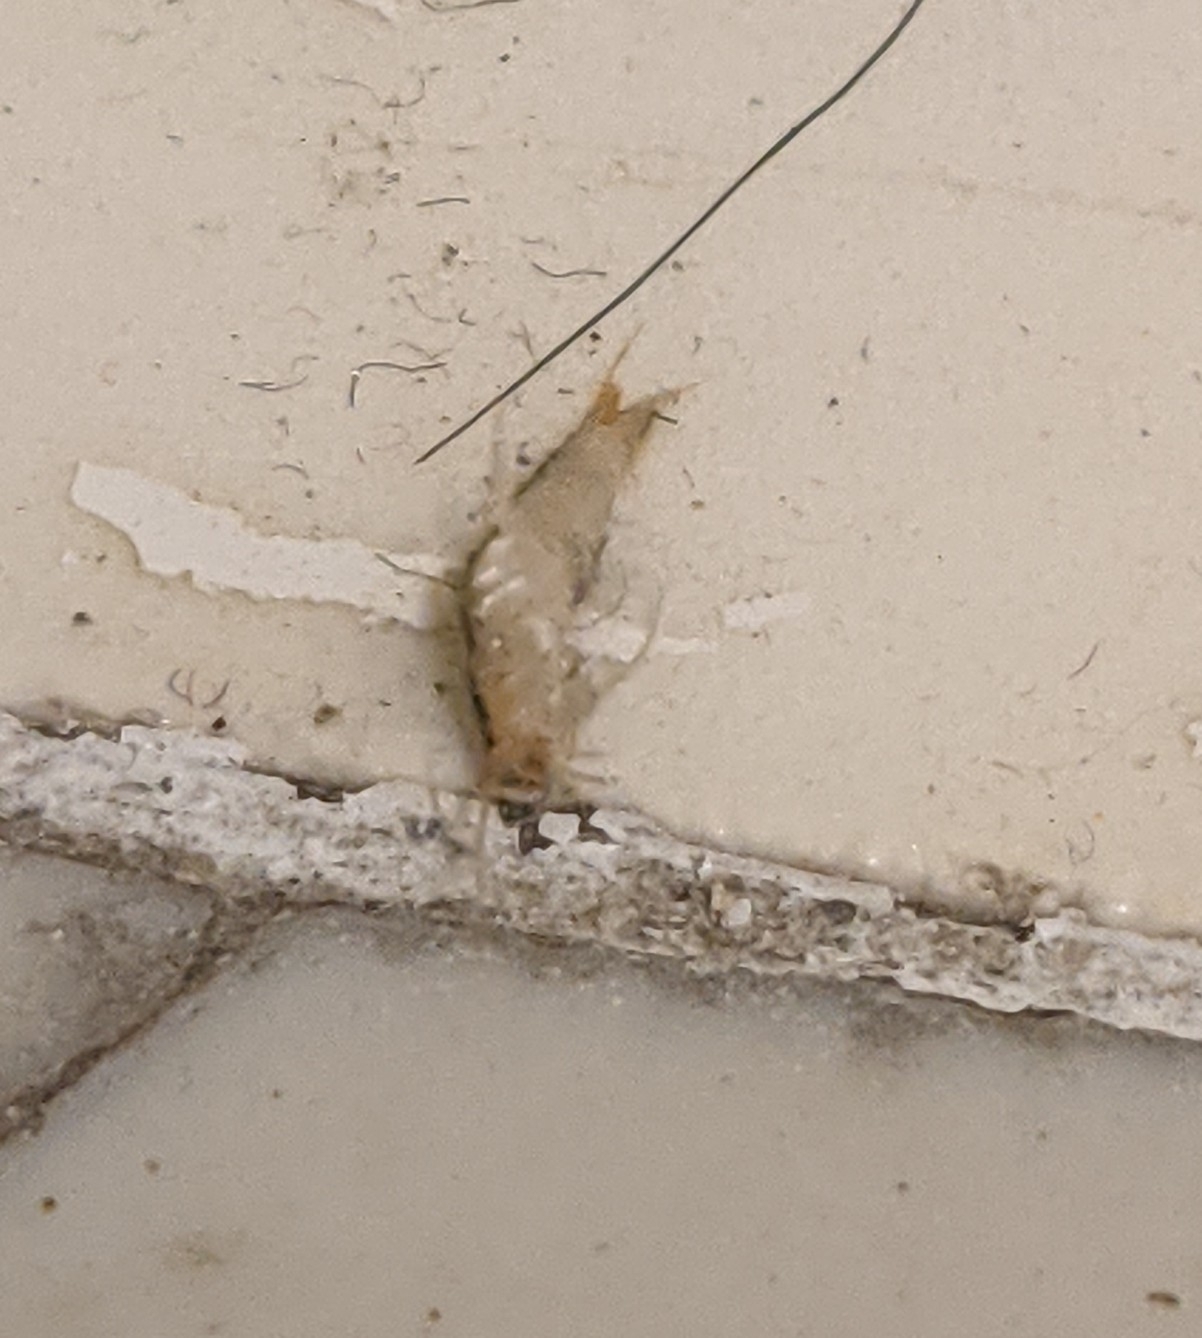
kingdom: Animalia
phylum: Arthropoda
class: Insecta
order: Zygentoma
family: Lepismatidae
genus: Lepisma
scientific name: Lepisma saccharinum
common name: Silverfish
